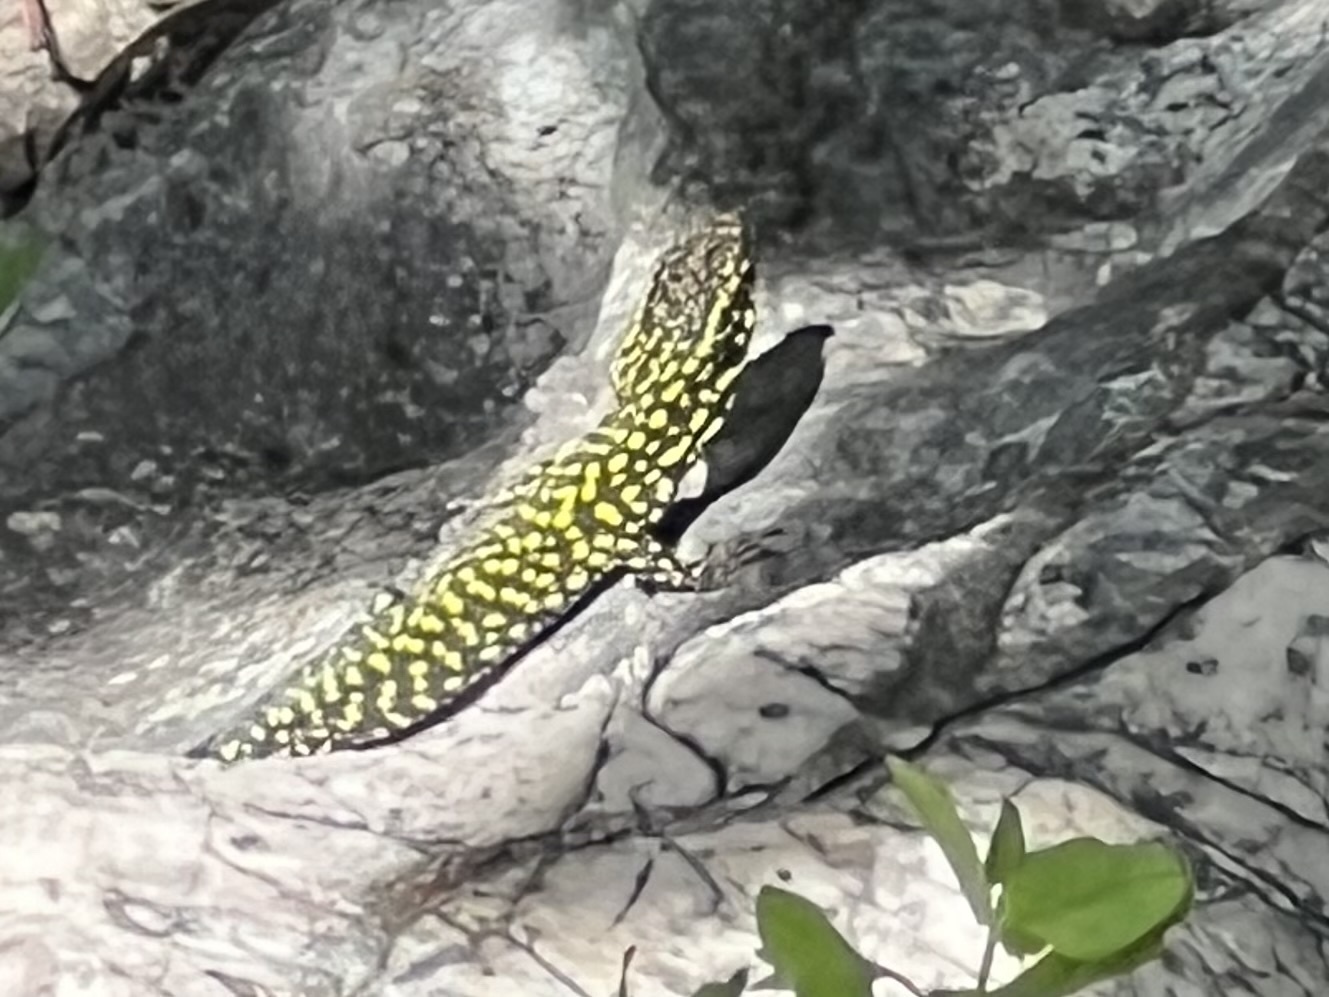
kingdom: Animalia
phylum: Chordata
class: Squamata
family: Lacertidae
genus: Podarcis
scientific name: Podarcis muralis
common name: Common wall lizard
